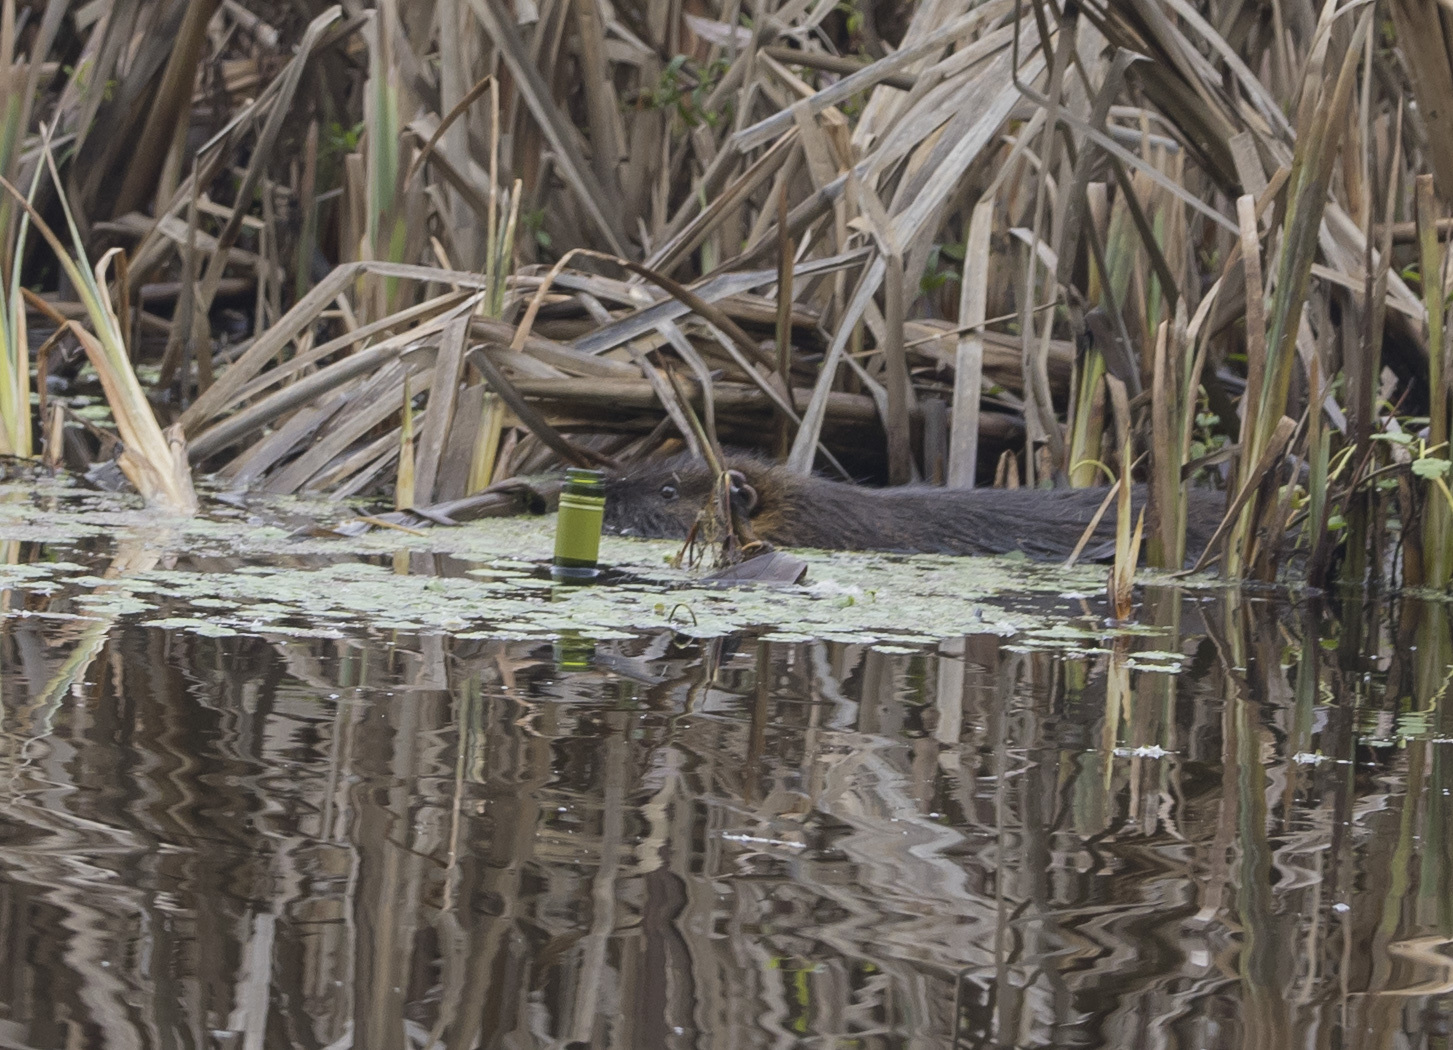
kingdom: Animalia
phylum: Chordata
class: Mammalia
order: Rodentia
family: Myocastoridae
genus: Myocastor
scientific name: Myocastor coypus
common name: Coypu
